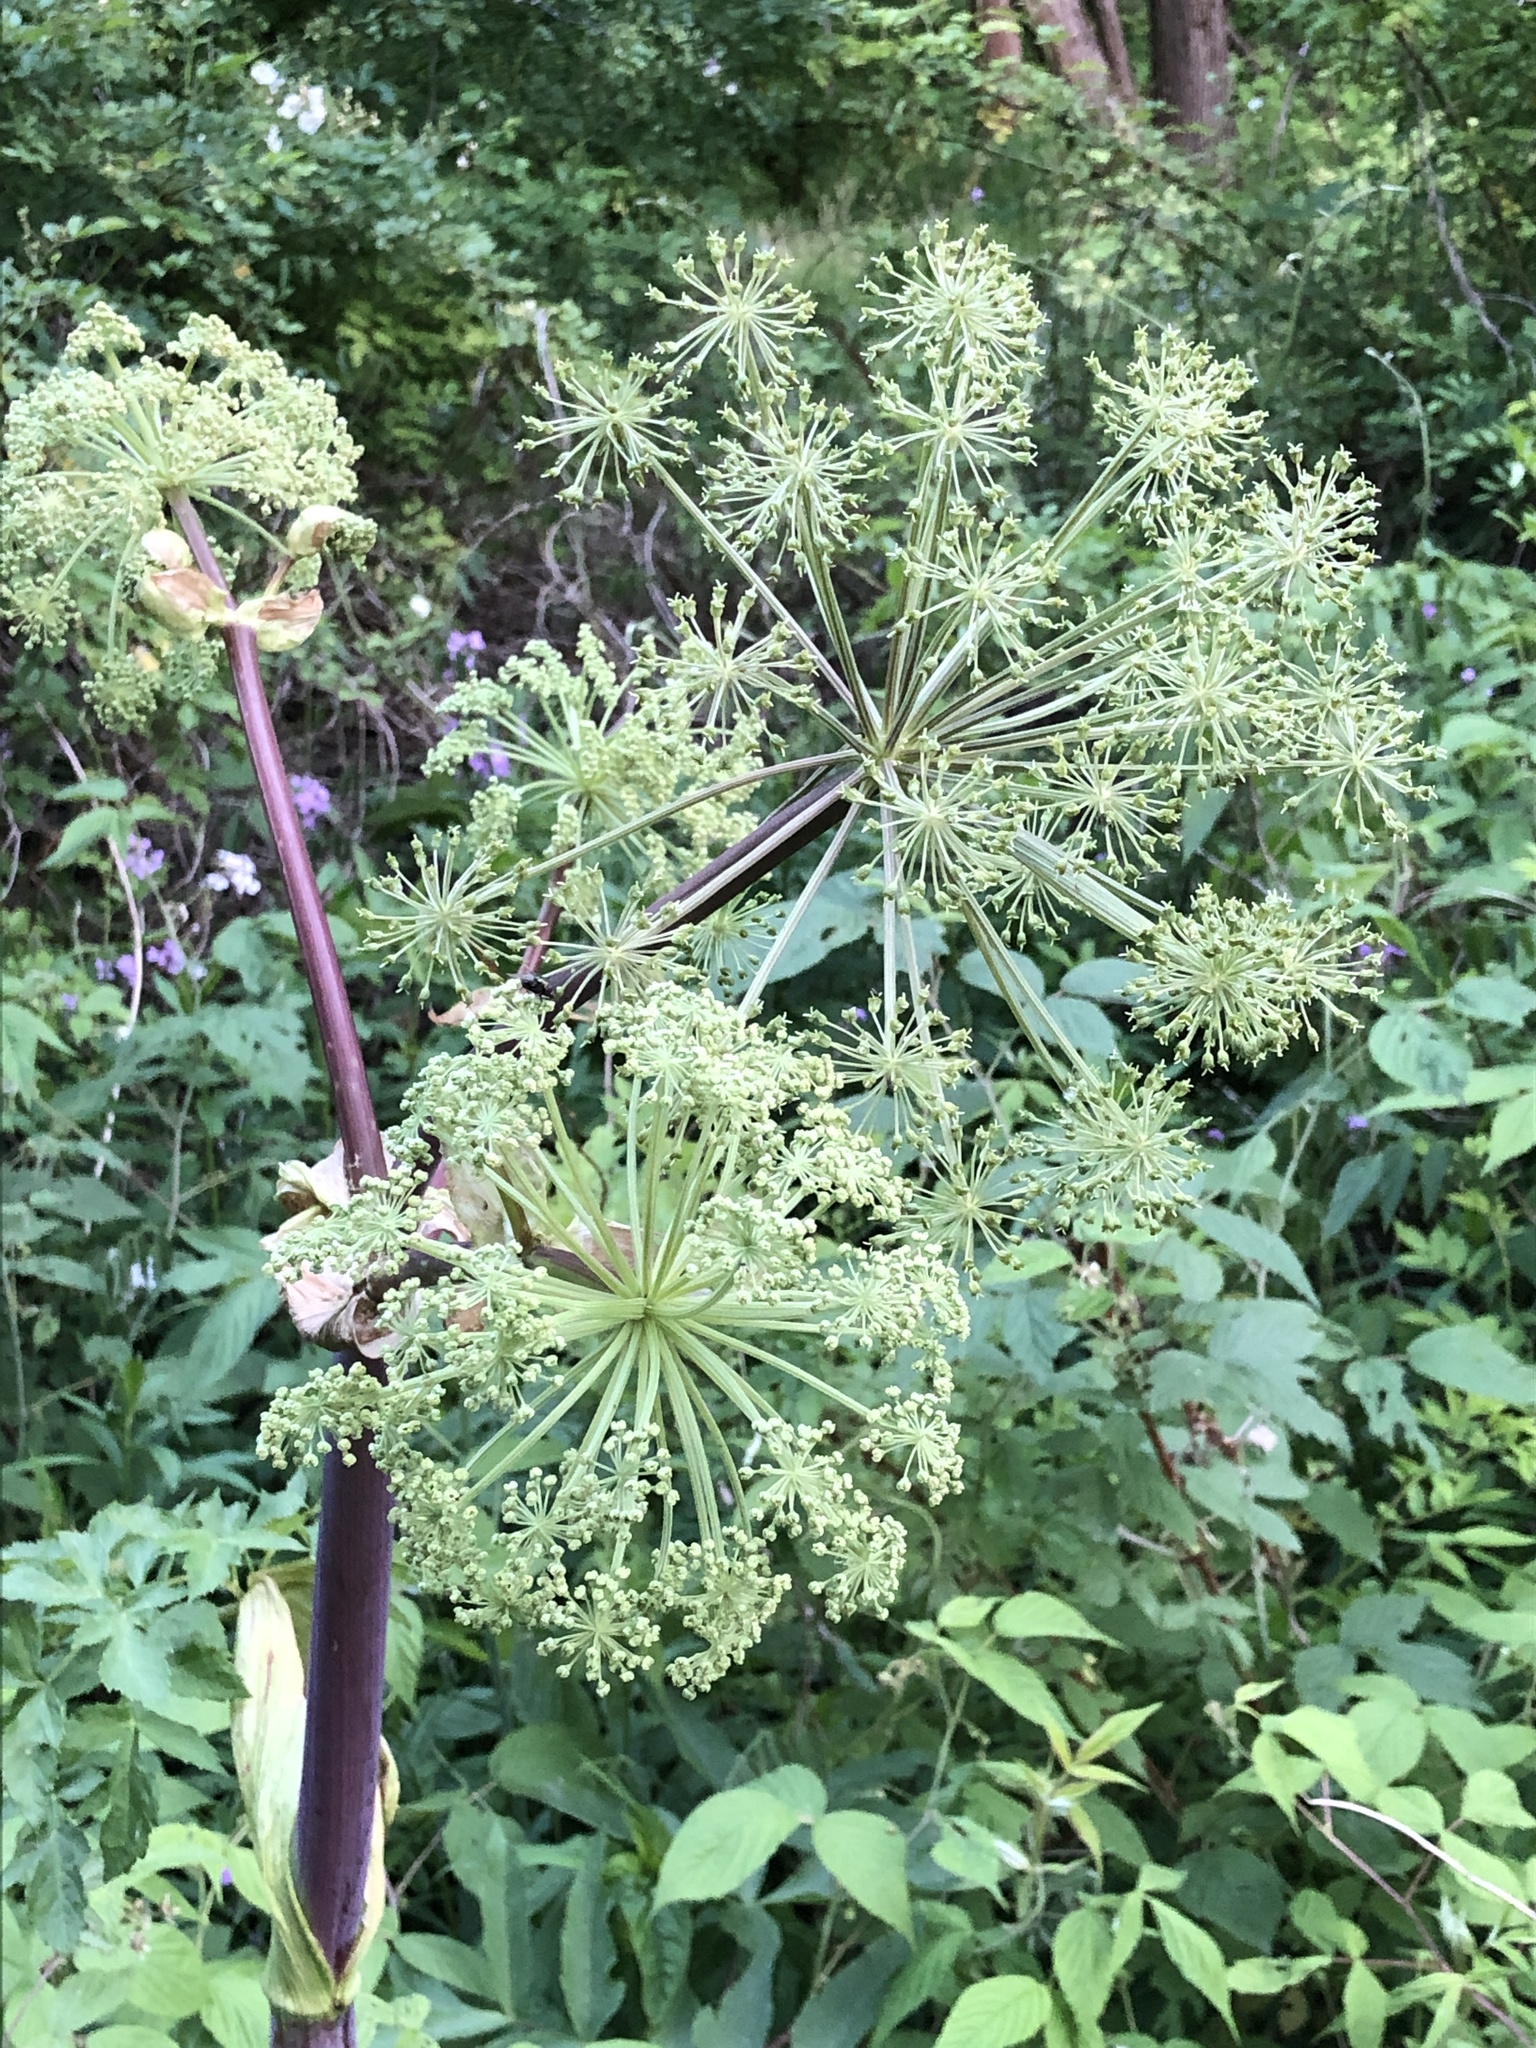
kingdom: Plantae
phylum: Tracheophyta
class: Magnoliopsida
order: Apiales
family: Apiaceae
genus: Angelica
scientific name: Angelica atropurpurea
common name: Great angelica
